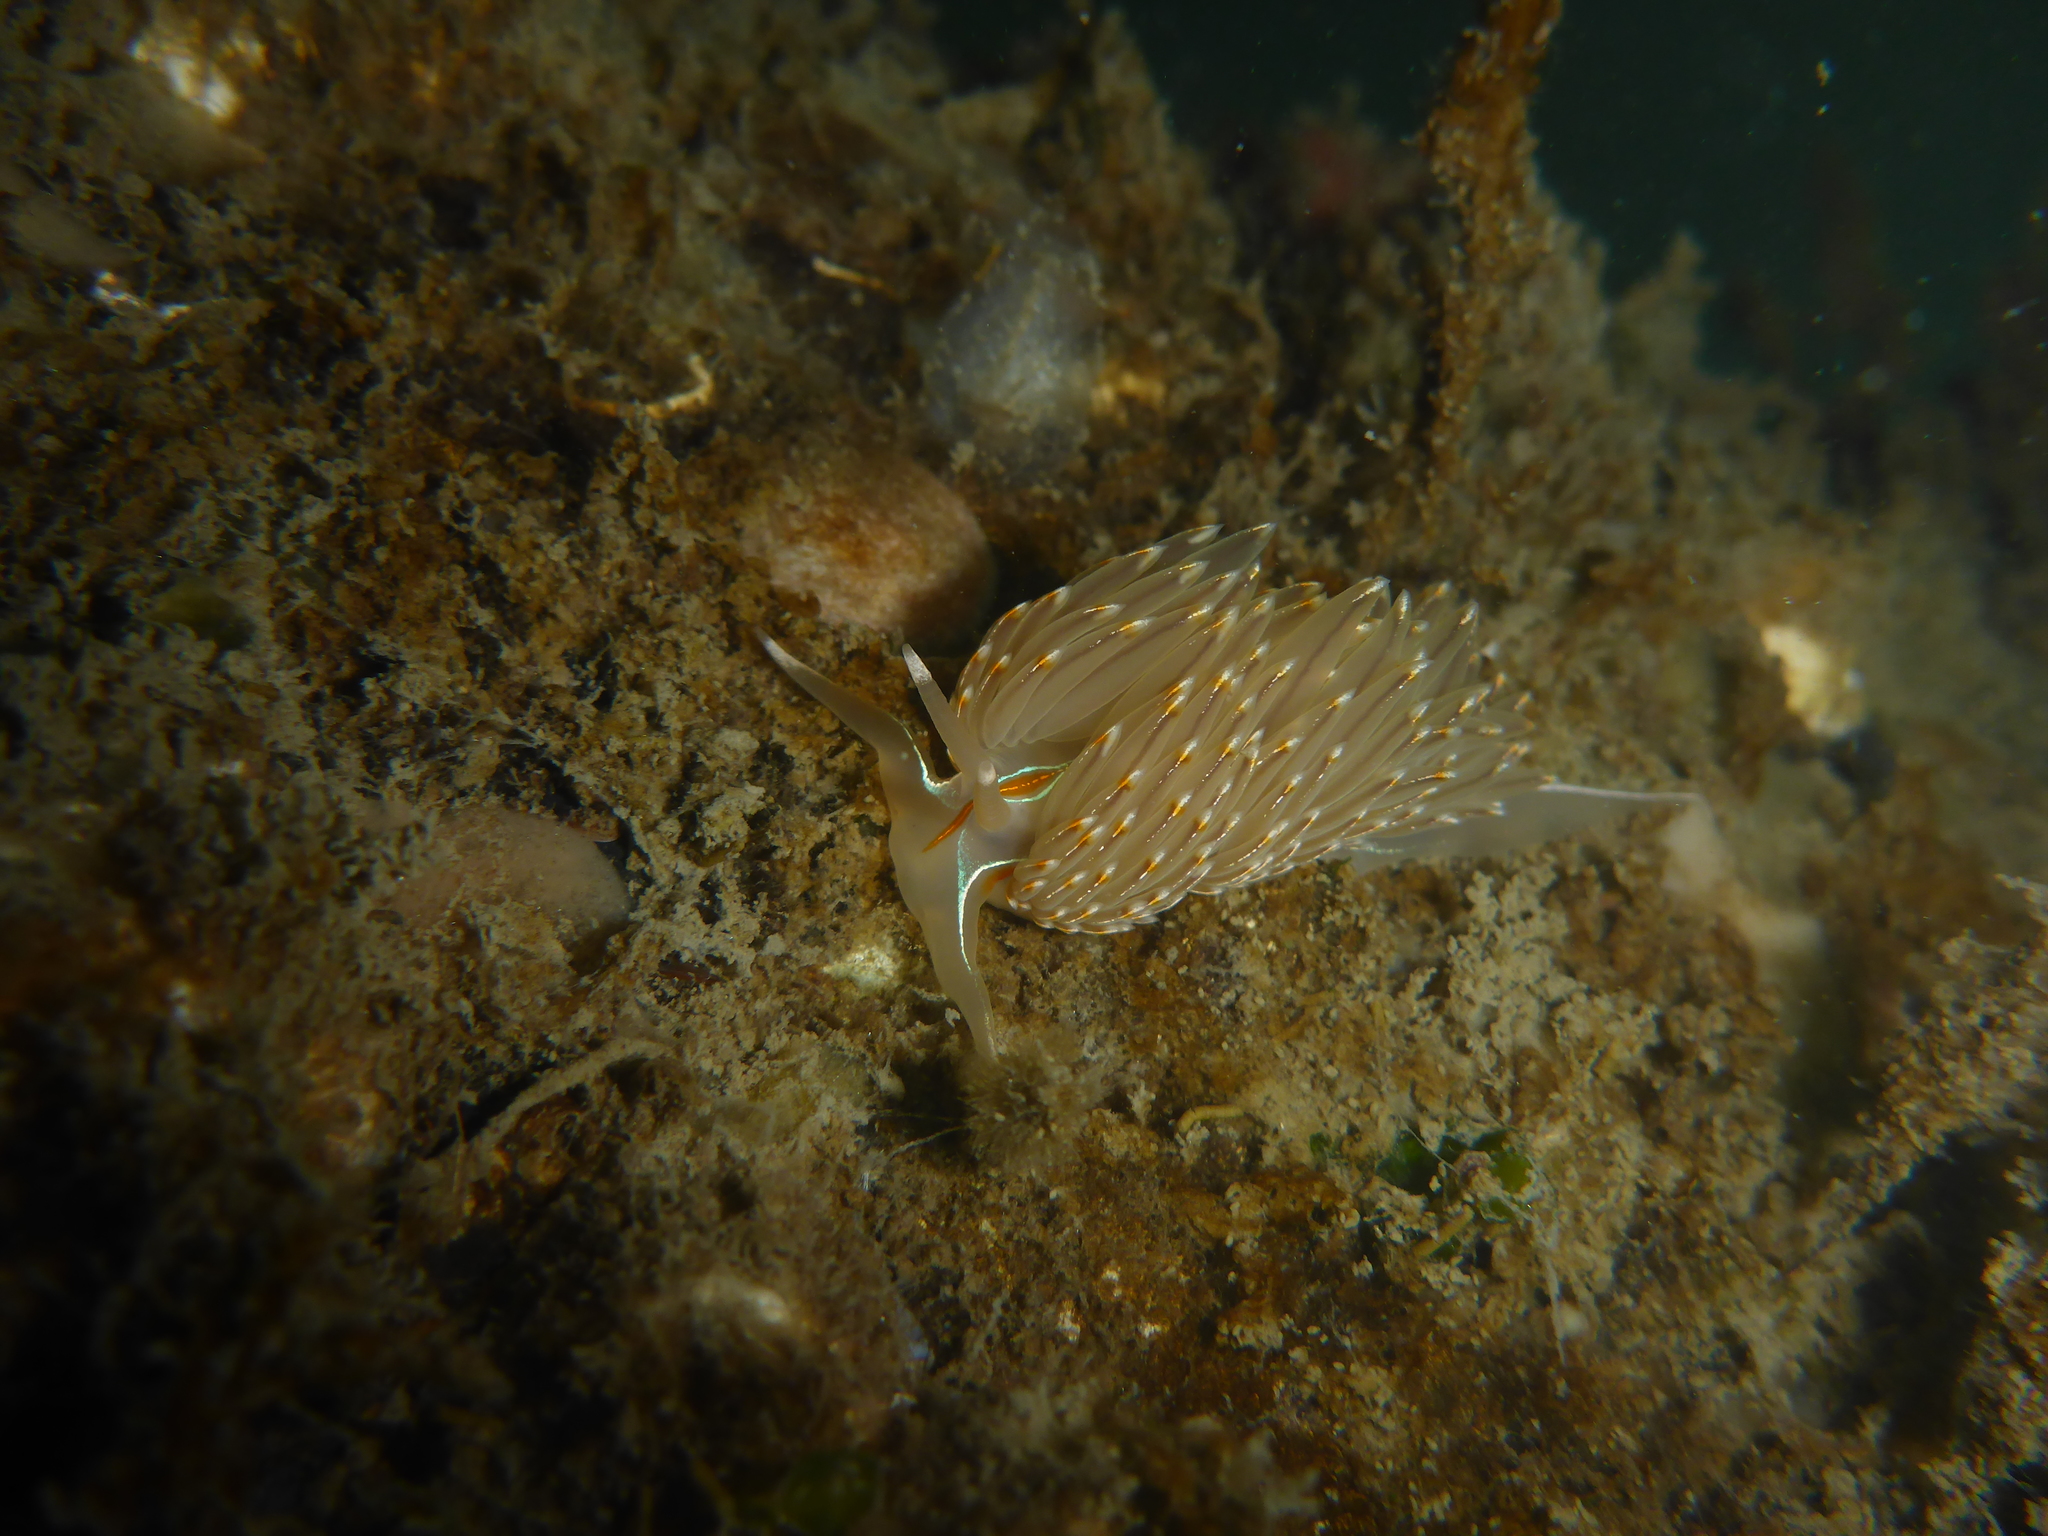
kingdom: Animalia
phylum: Mollusca
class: Gastropoda
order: Nudibranchia
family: Myrrhinidae
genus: Hermissenda
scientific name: Hermissenda crassicornis
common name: Hermissenda
